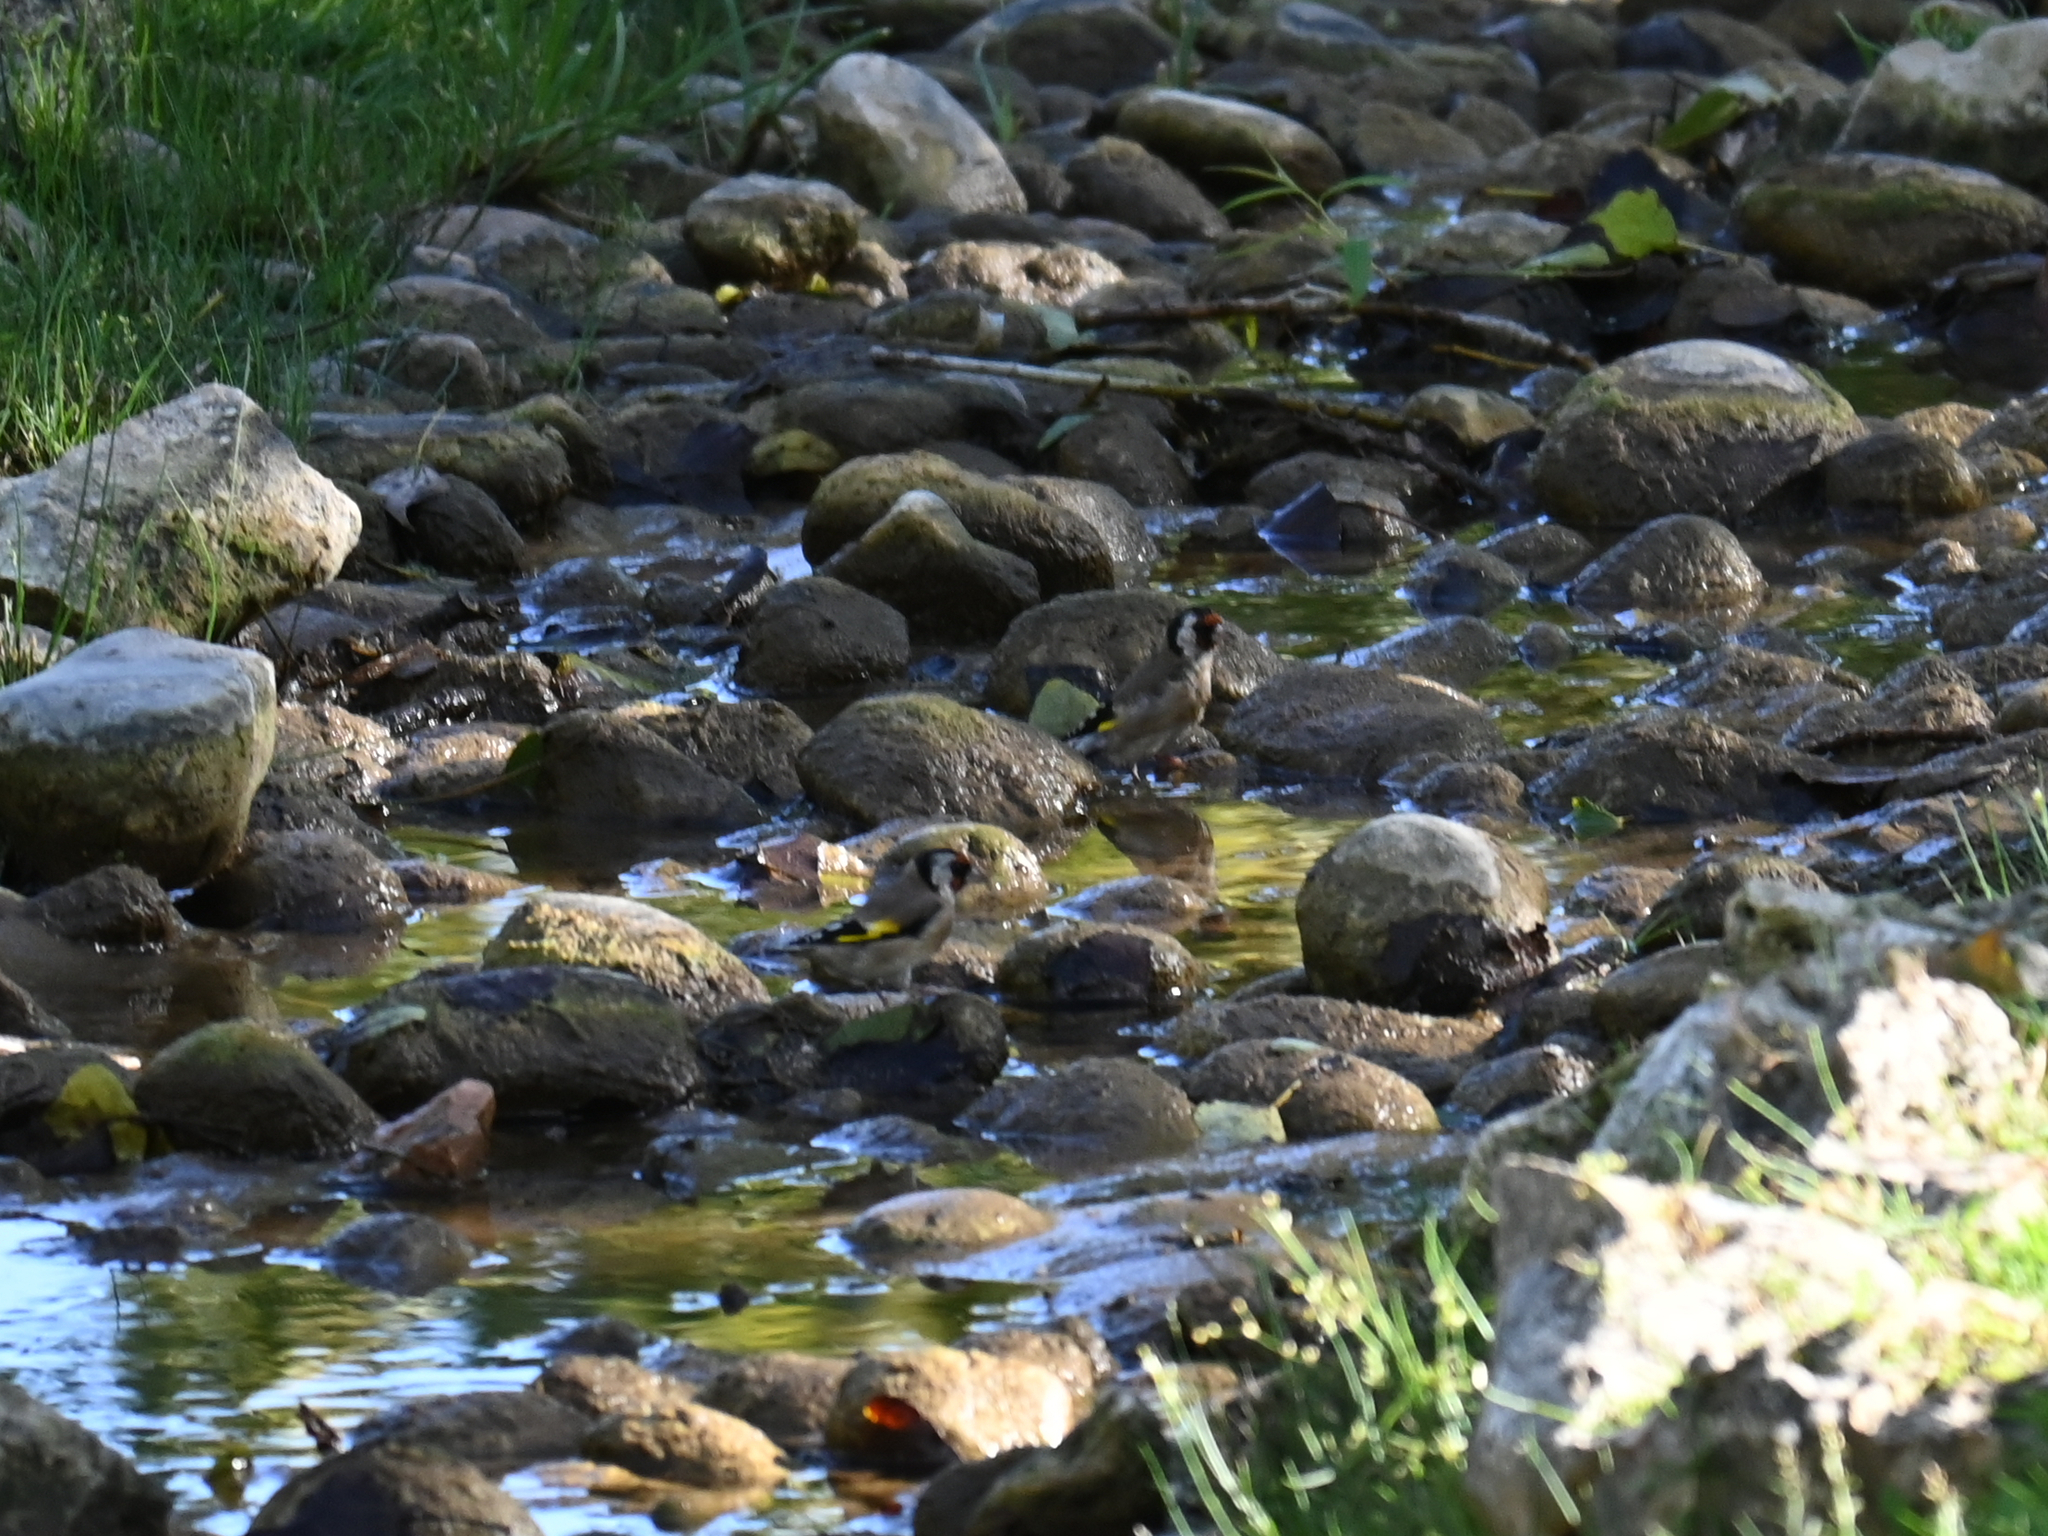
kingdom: Animalia
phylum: Chordata
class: Aves
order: Passeriformes
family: Fringillidae
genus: Carduelis
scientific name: Carduelis carduelis
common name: European goldfinch
